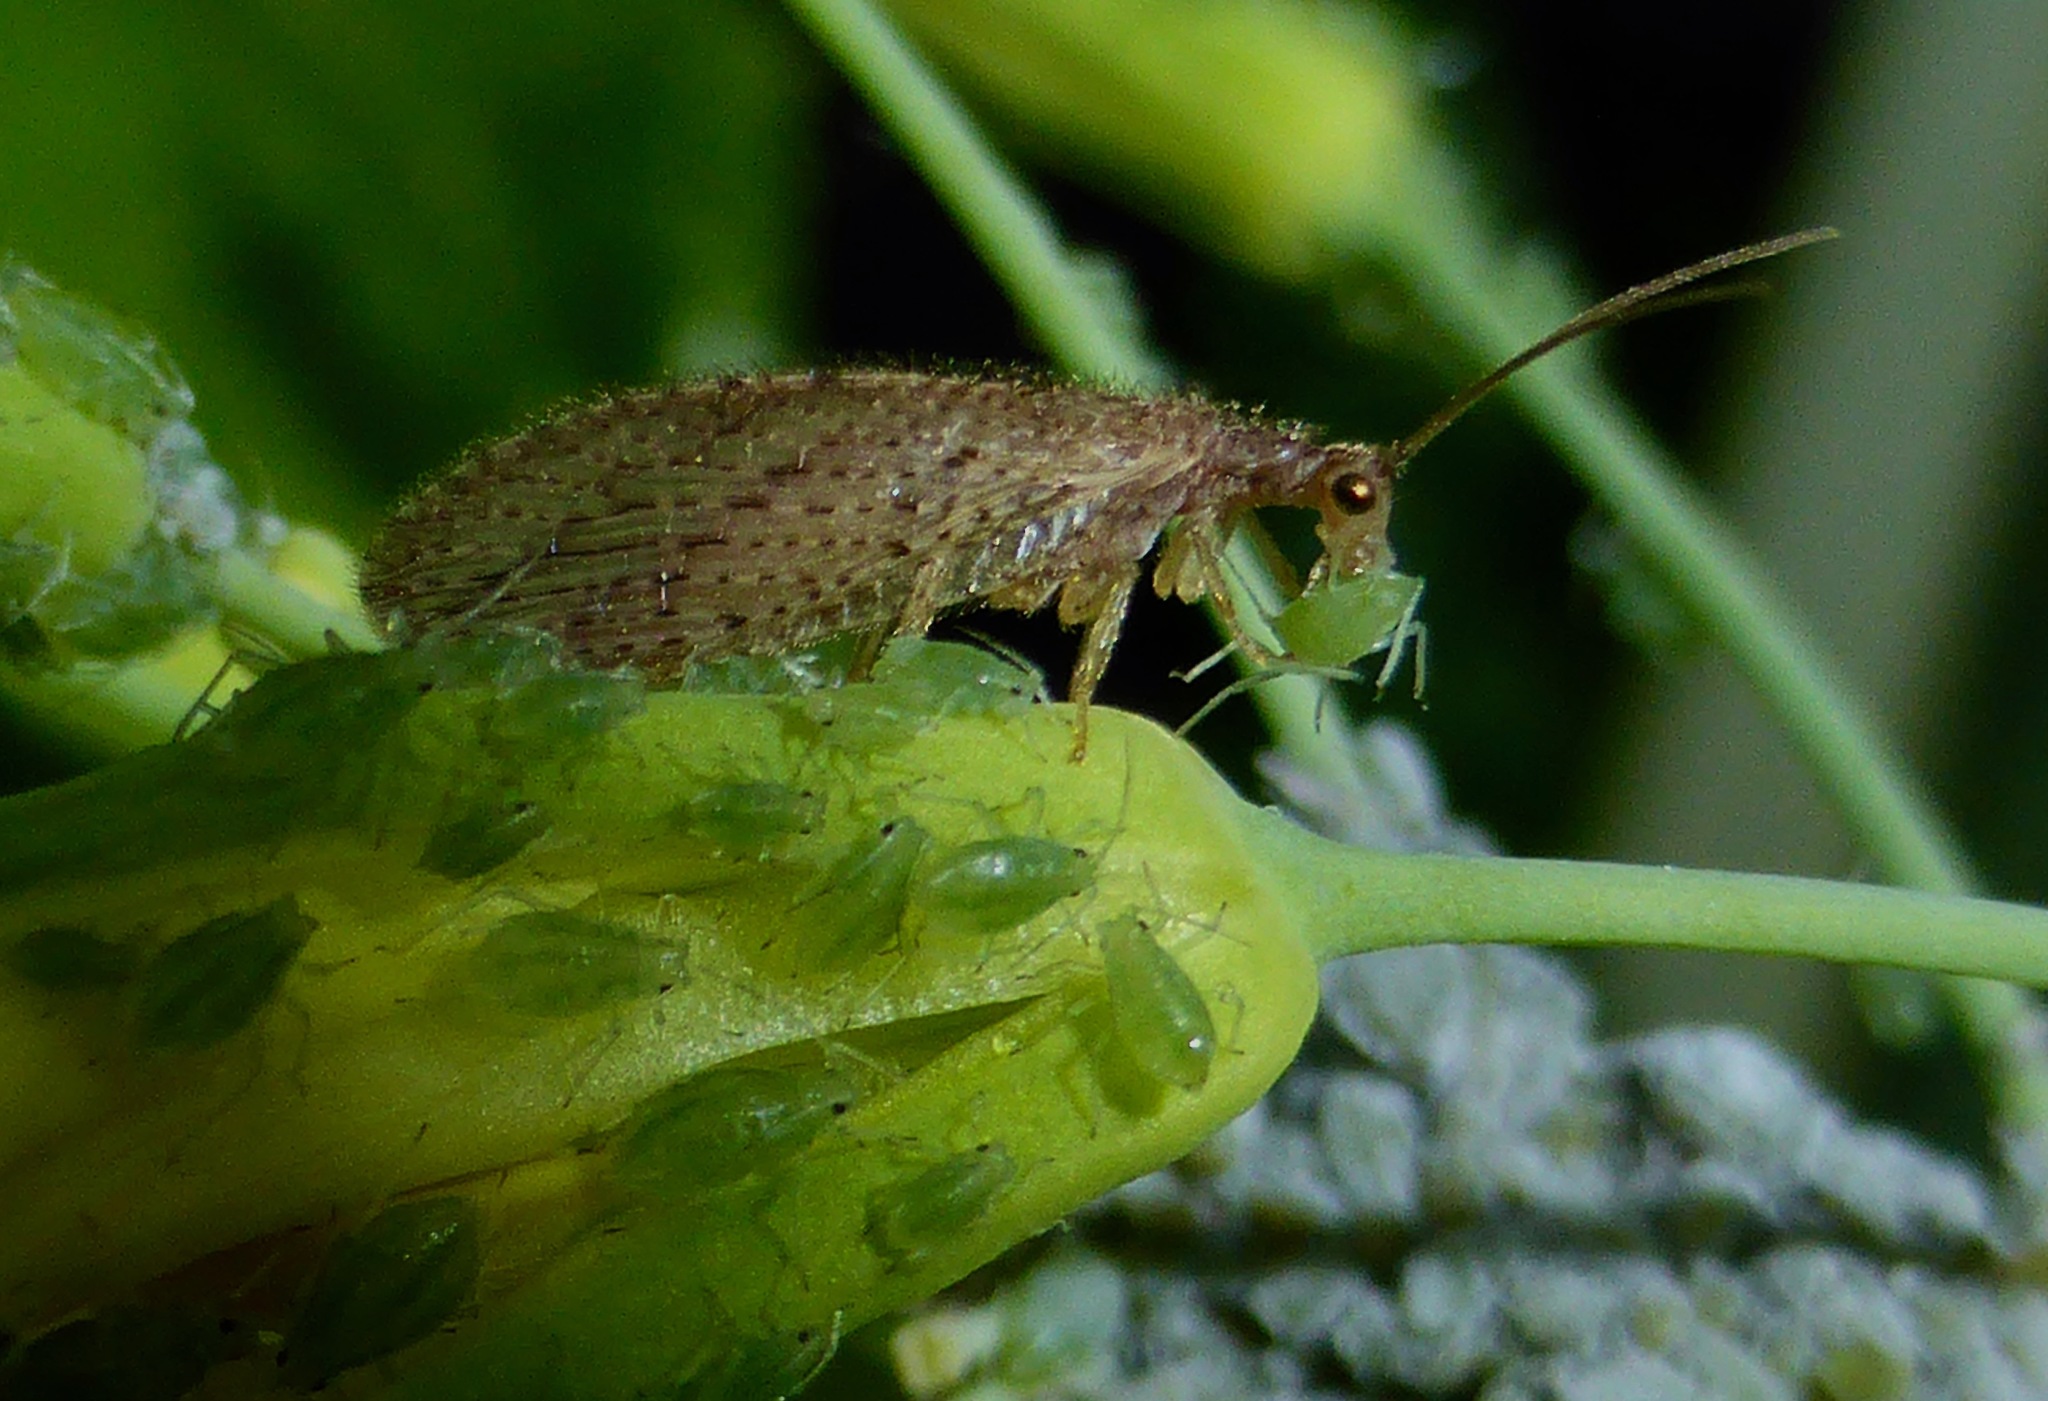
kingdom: Animalia
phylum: Arthropoda
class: Insecta
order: Neuroptera
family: Hemerobiidae
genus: Micromus
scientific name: Micromus tasmaniae
